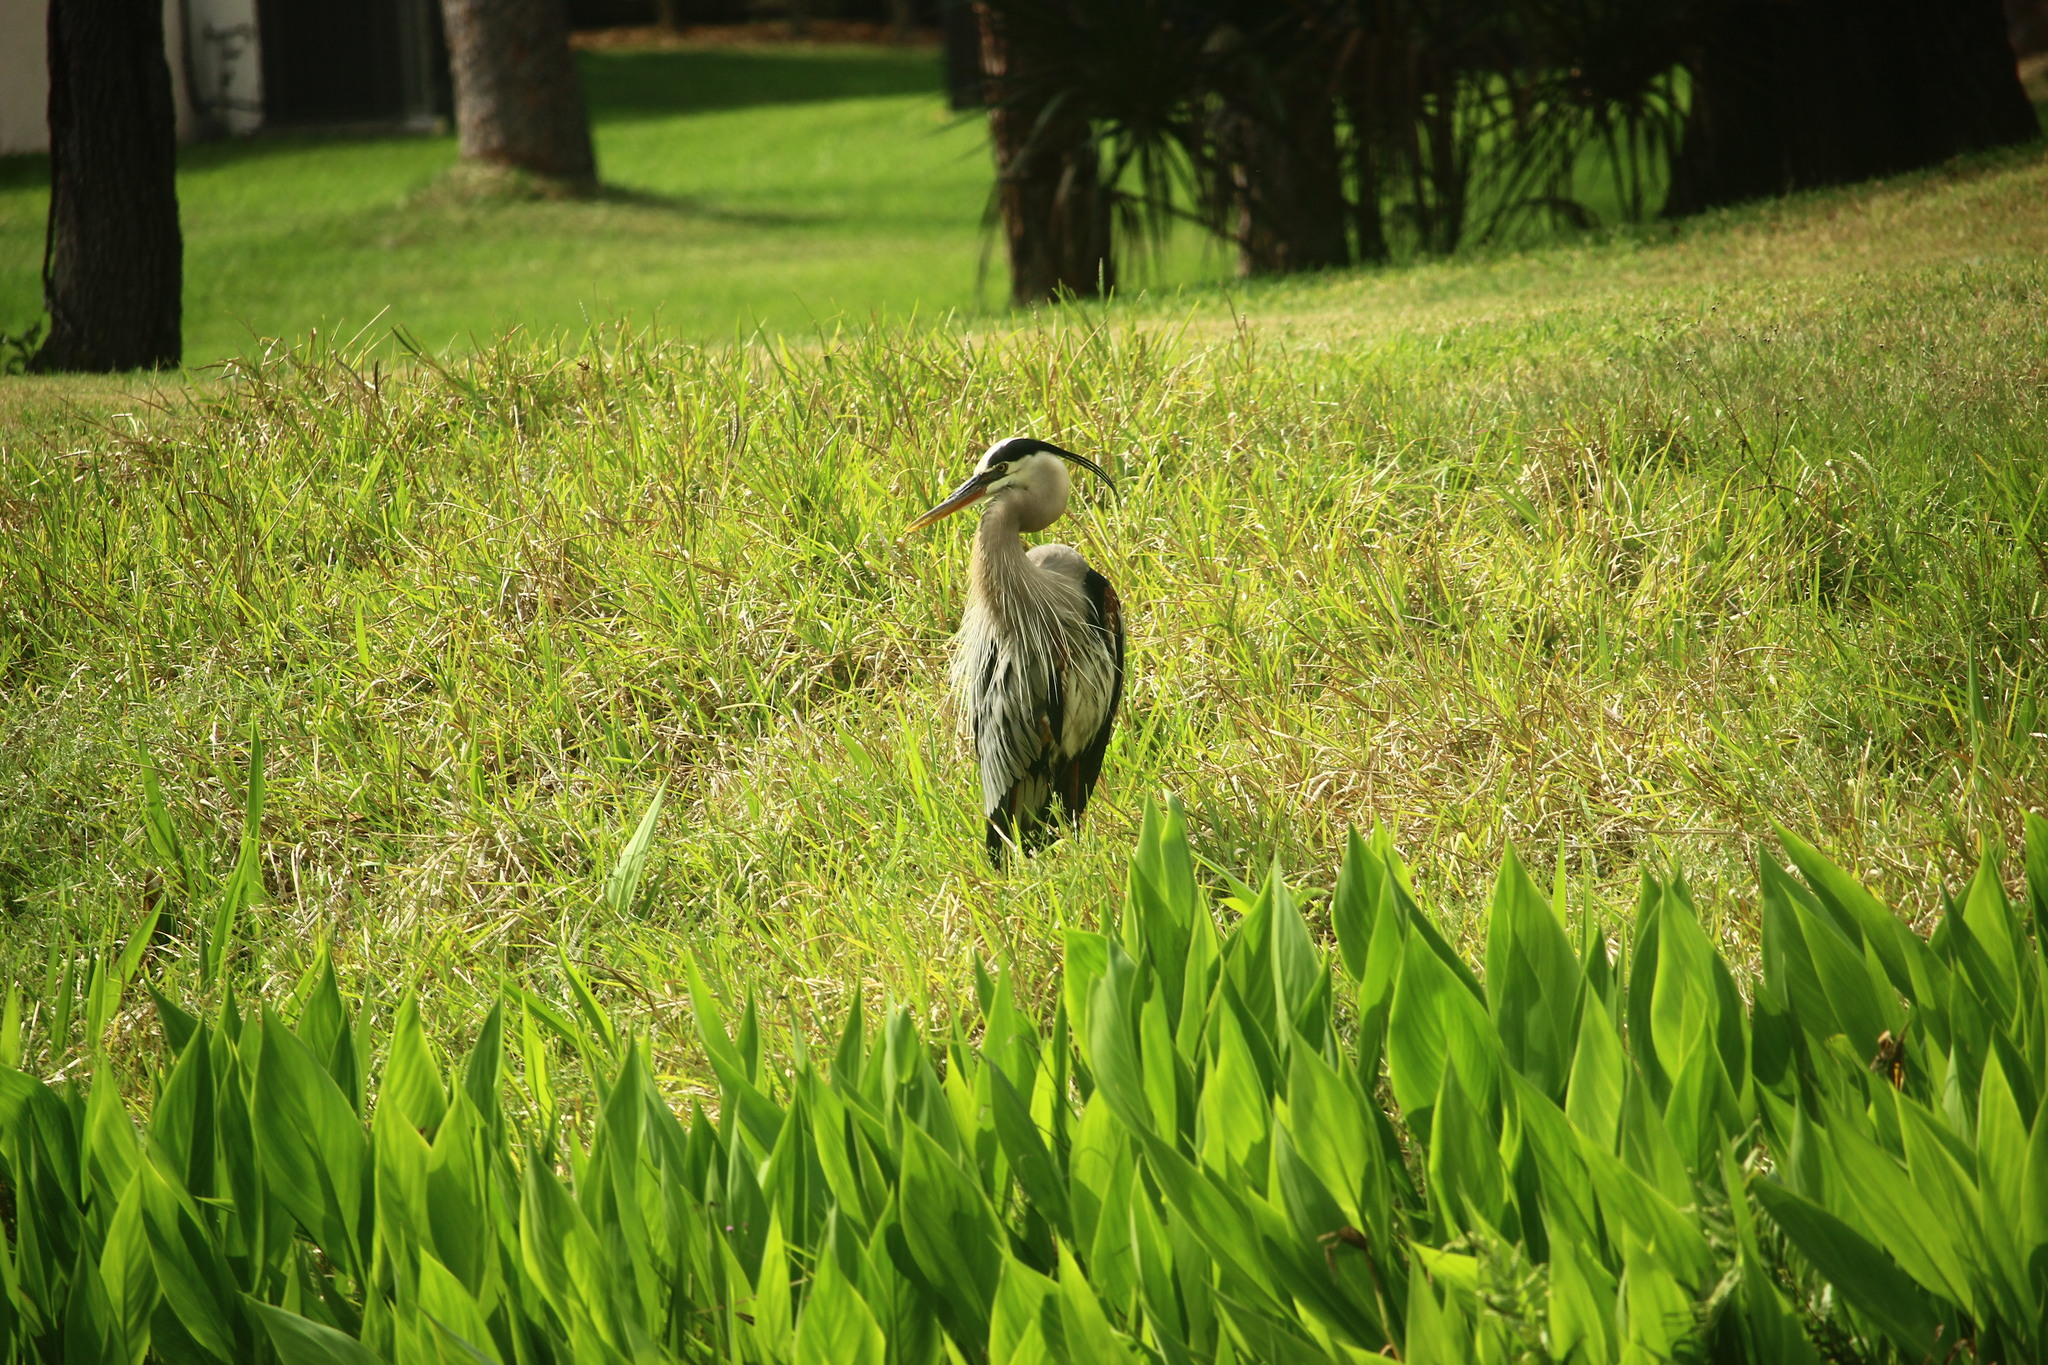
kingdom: Animalia
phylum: Chordata
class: Aves
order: Pelecaniformes
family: Ardeidae
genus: Ardea
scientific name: Ardea herodias
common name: Great blue heron
